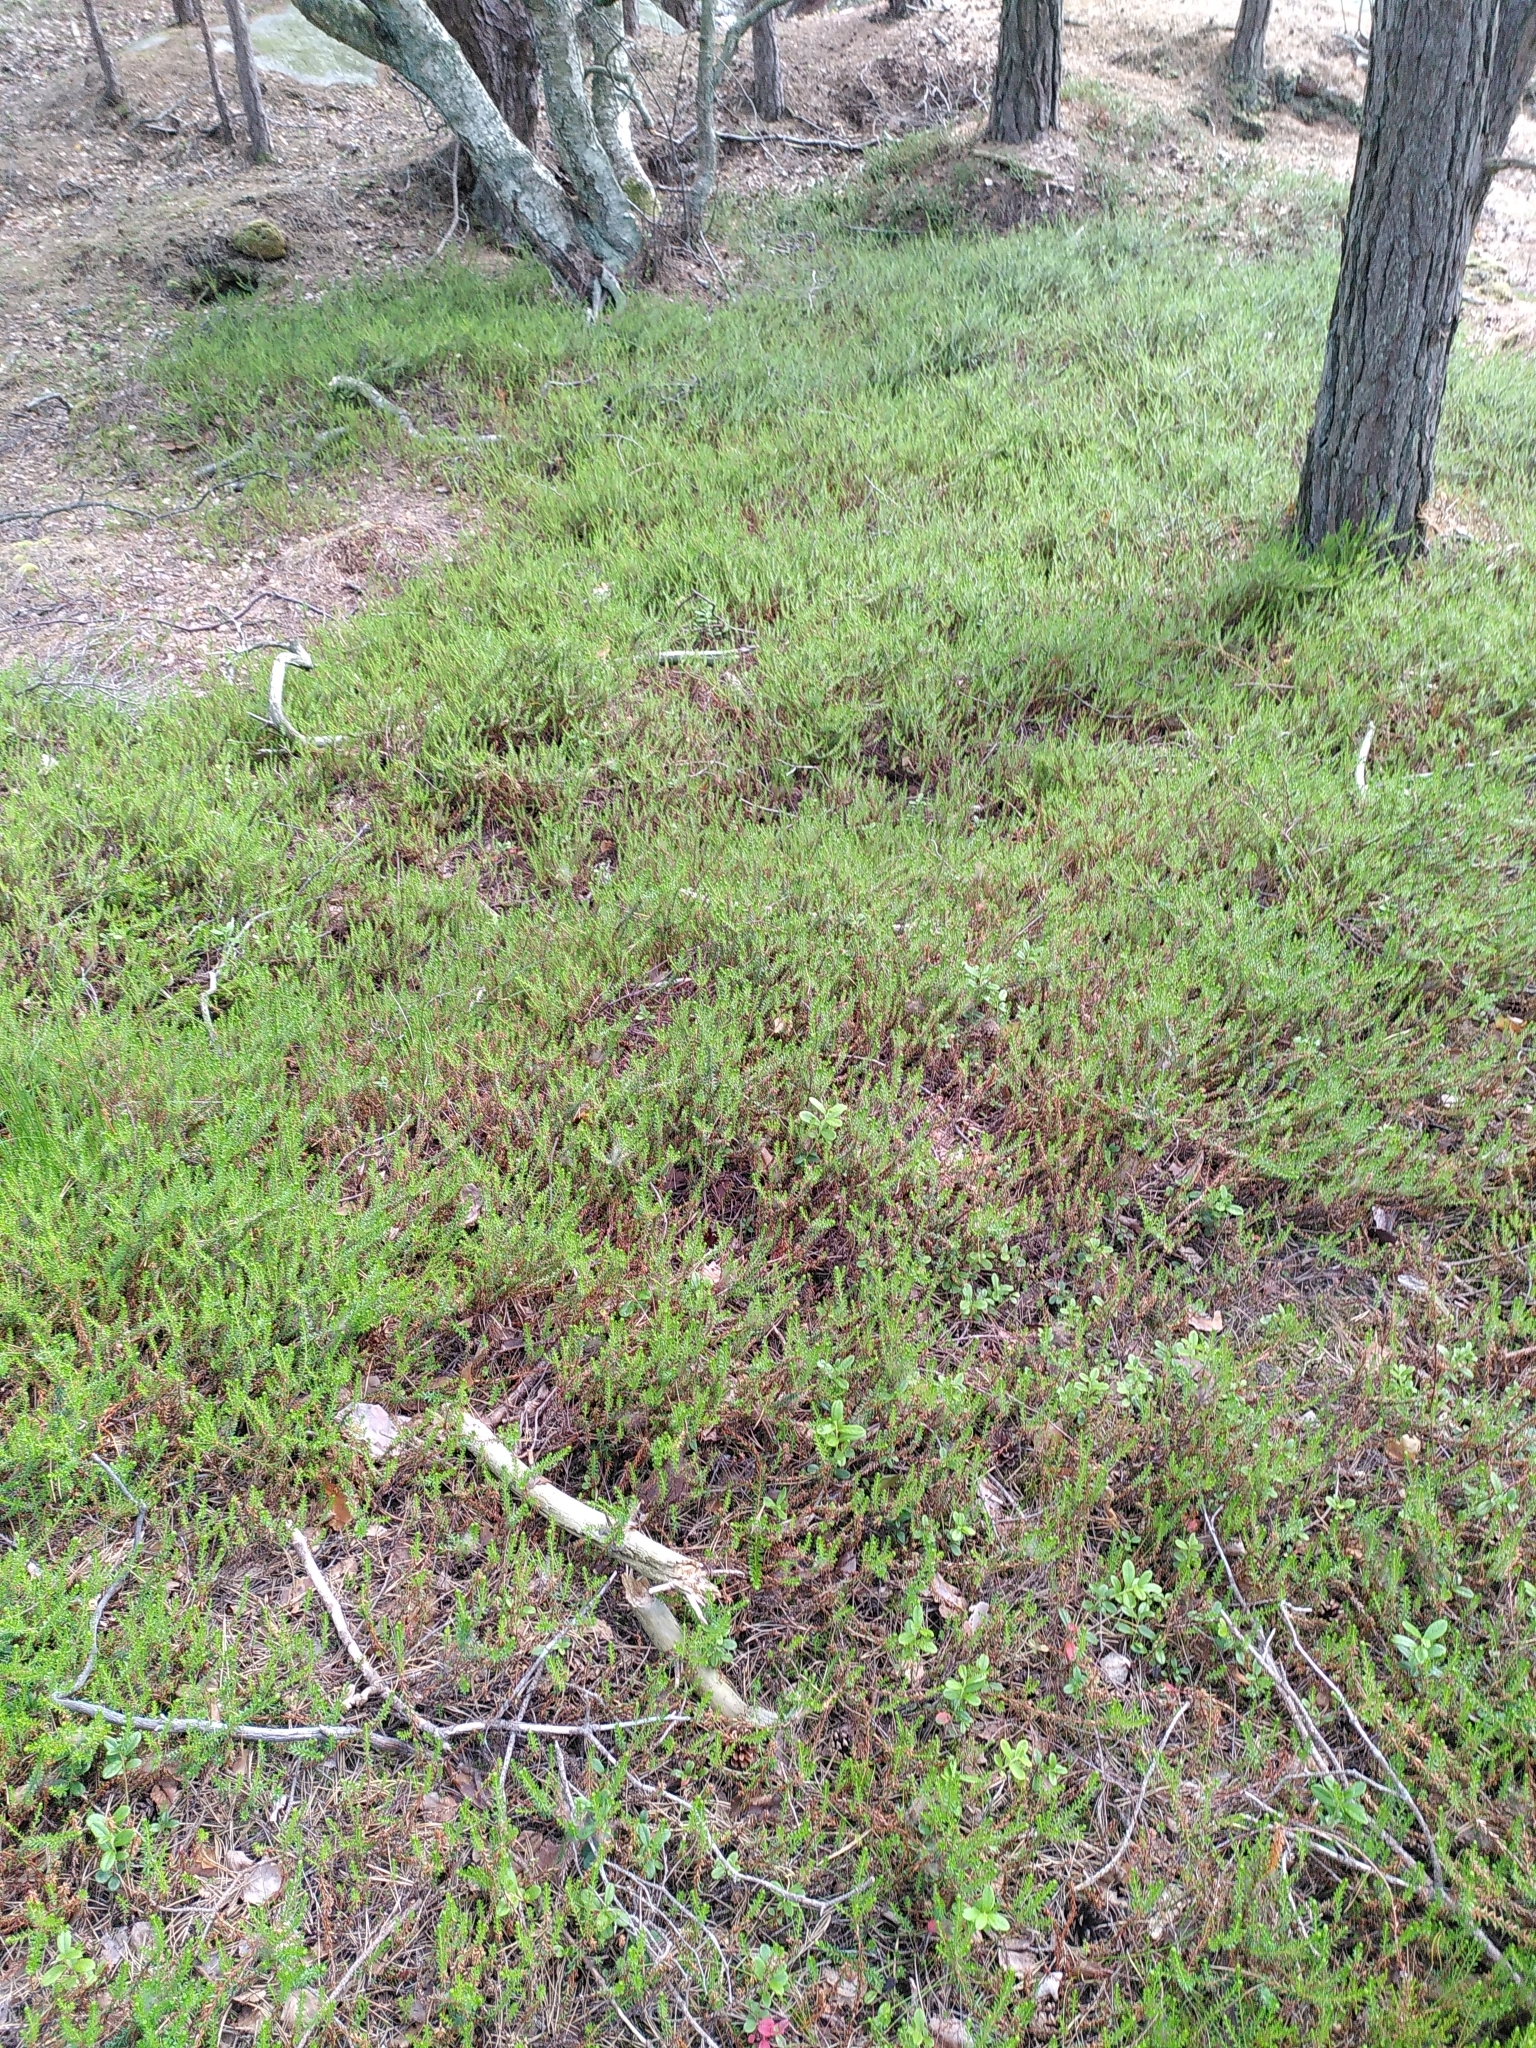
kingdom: Plantae
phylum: Tracheophyta
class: Magnoliopsida
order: Ericales
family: Ericaceae
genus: Empetrum
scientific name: Empetrum nigrum
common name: Black crowberry
